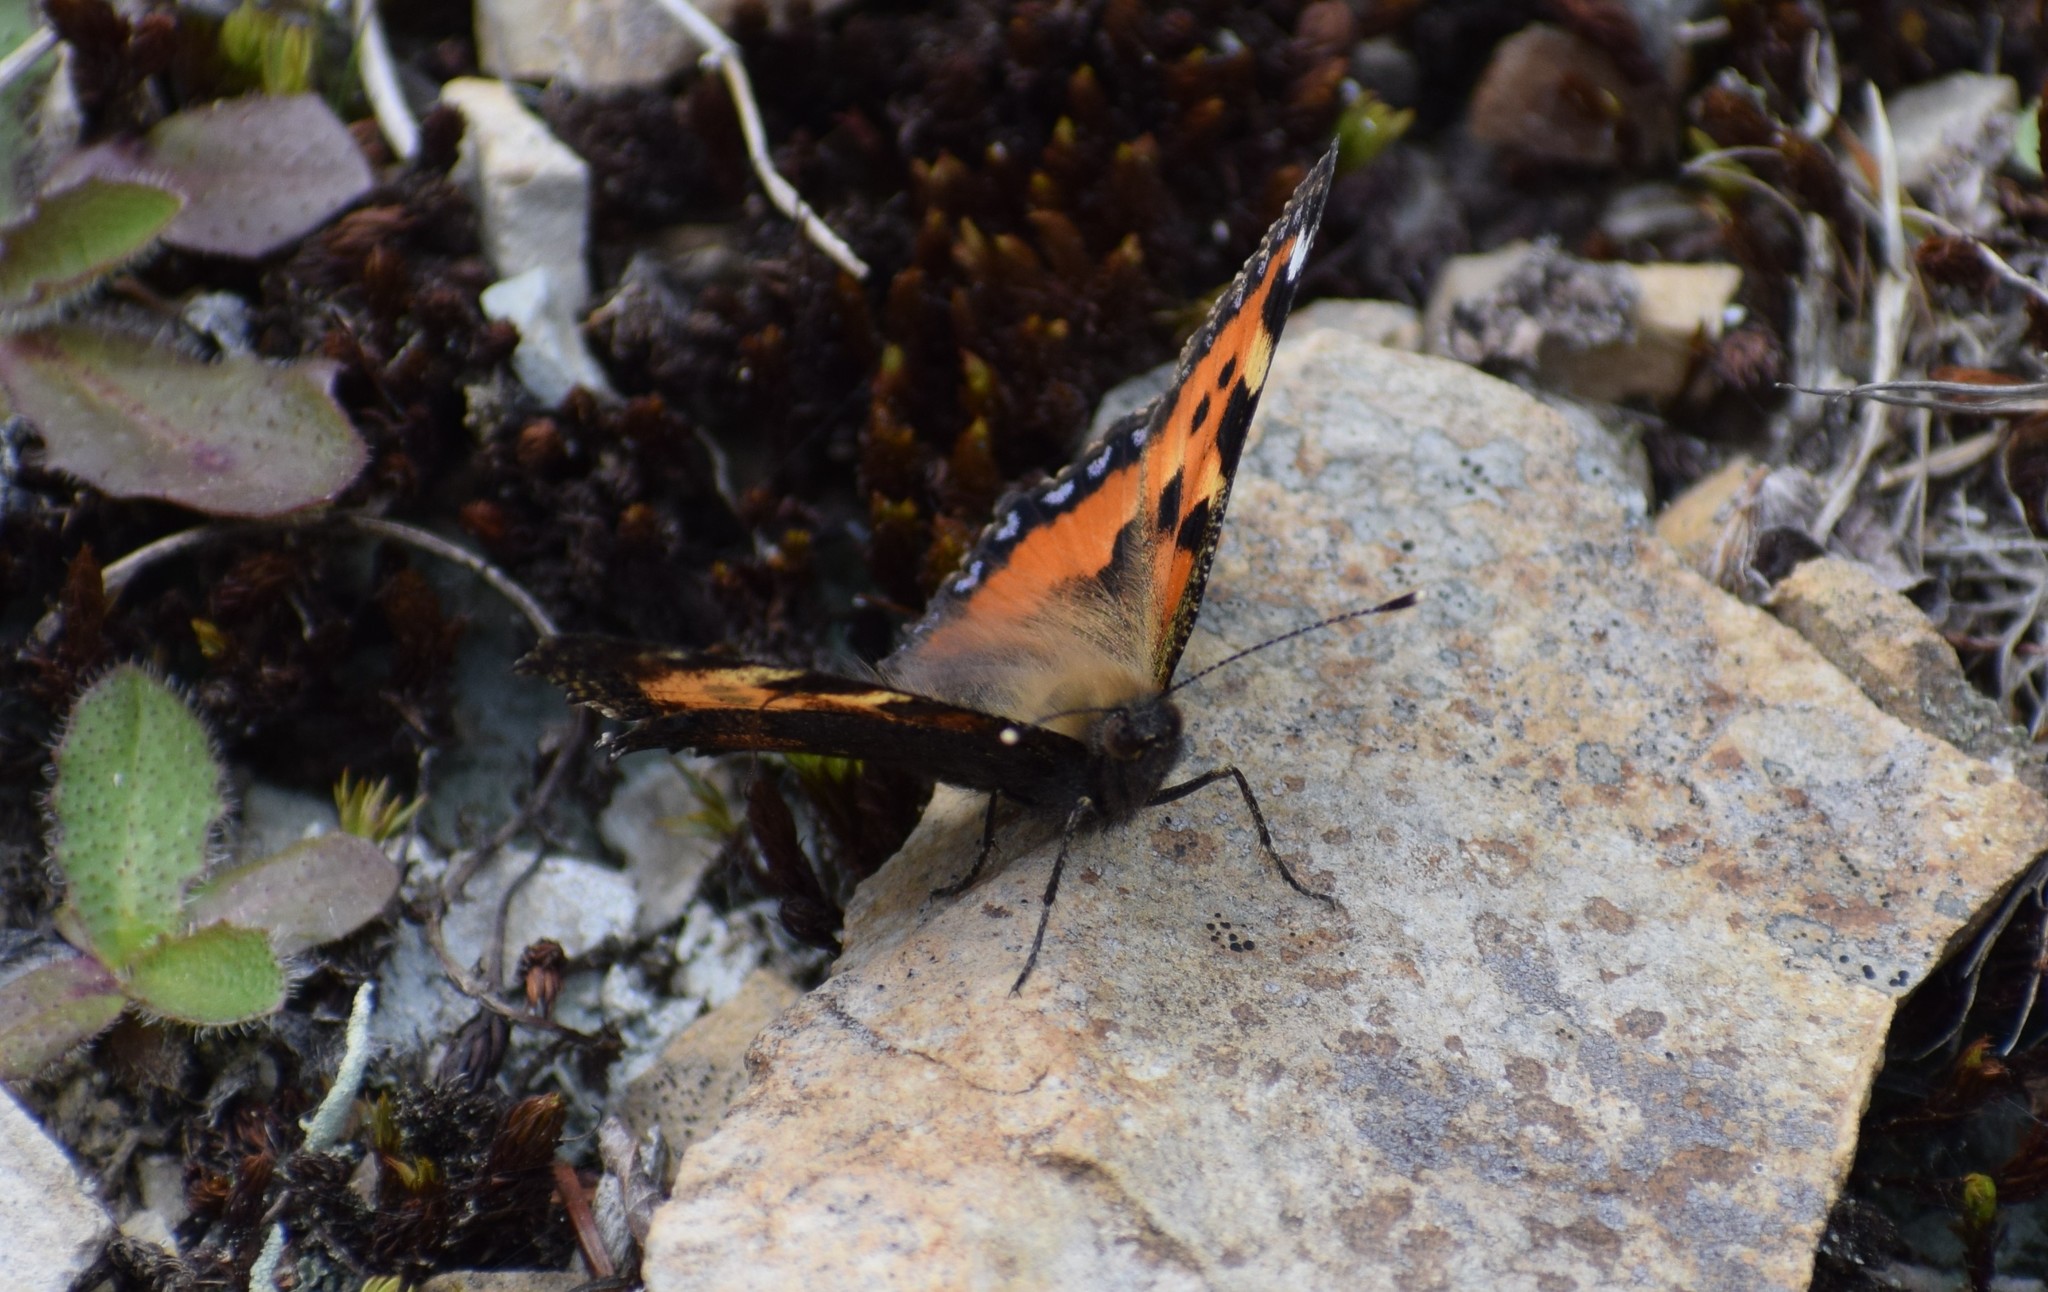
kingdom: Animalia
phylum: Arthropoda
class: Insecta
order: Lepidoptera
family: Nymphalidae
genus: Aglais
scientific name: Aglais urticae
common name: Small tortoiseshell
